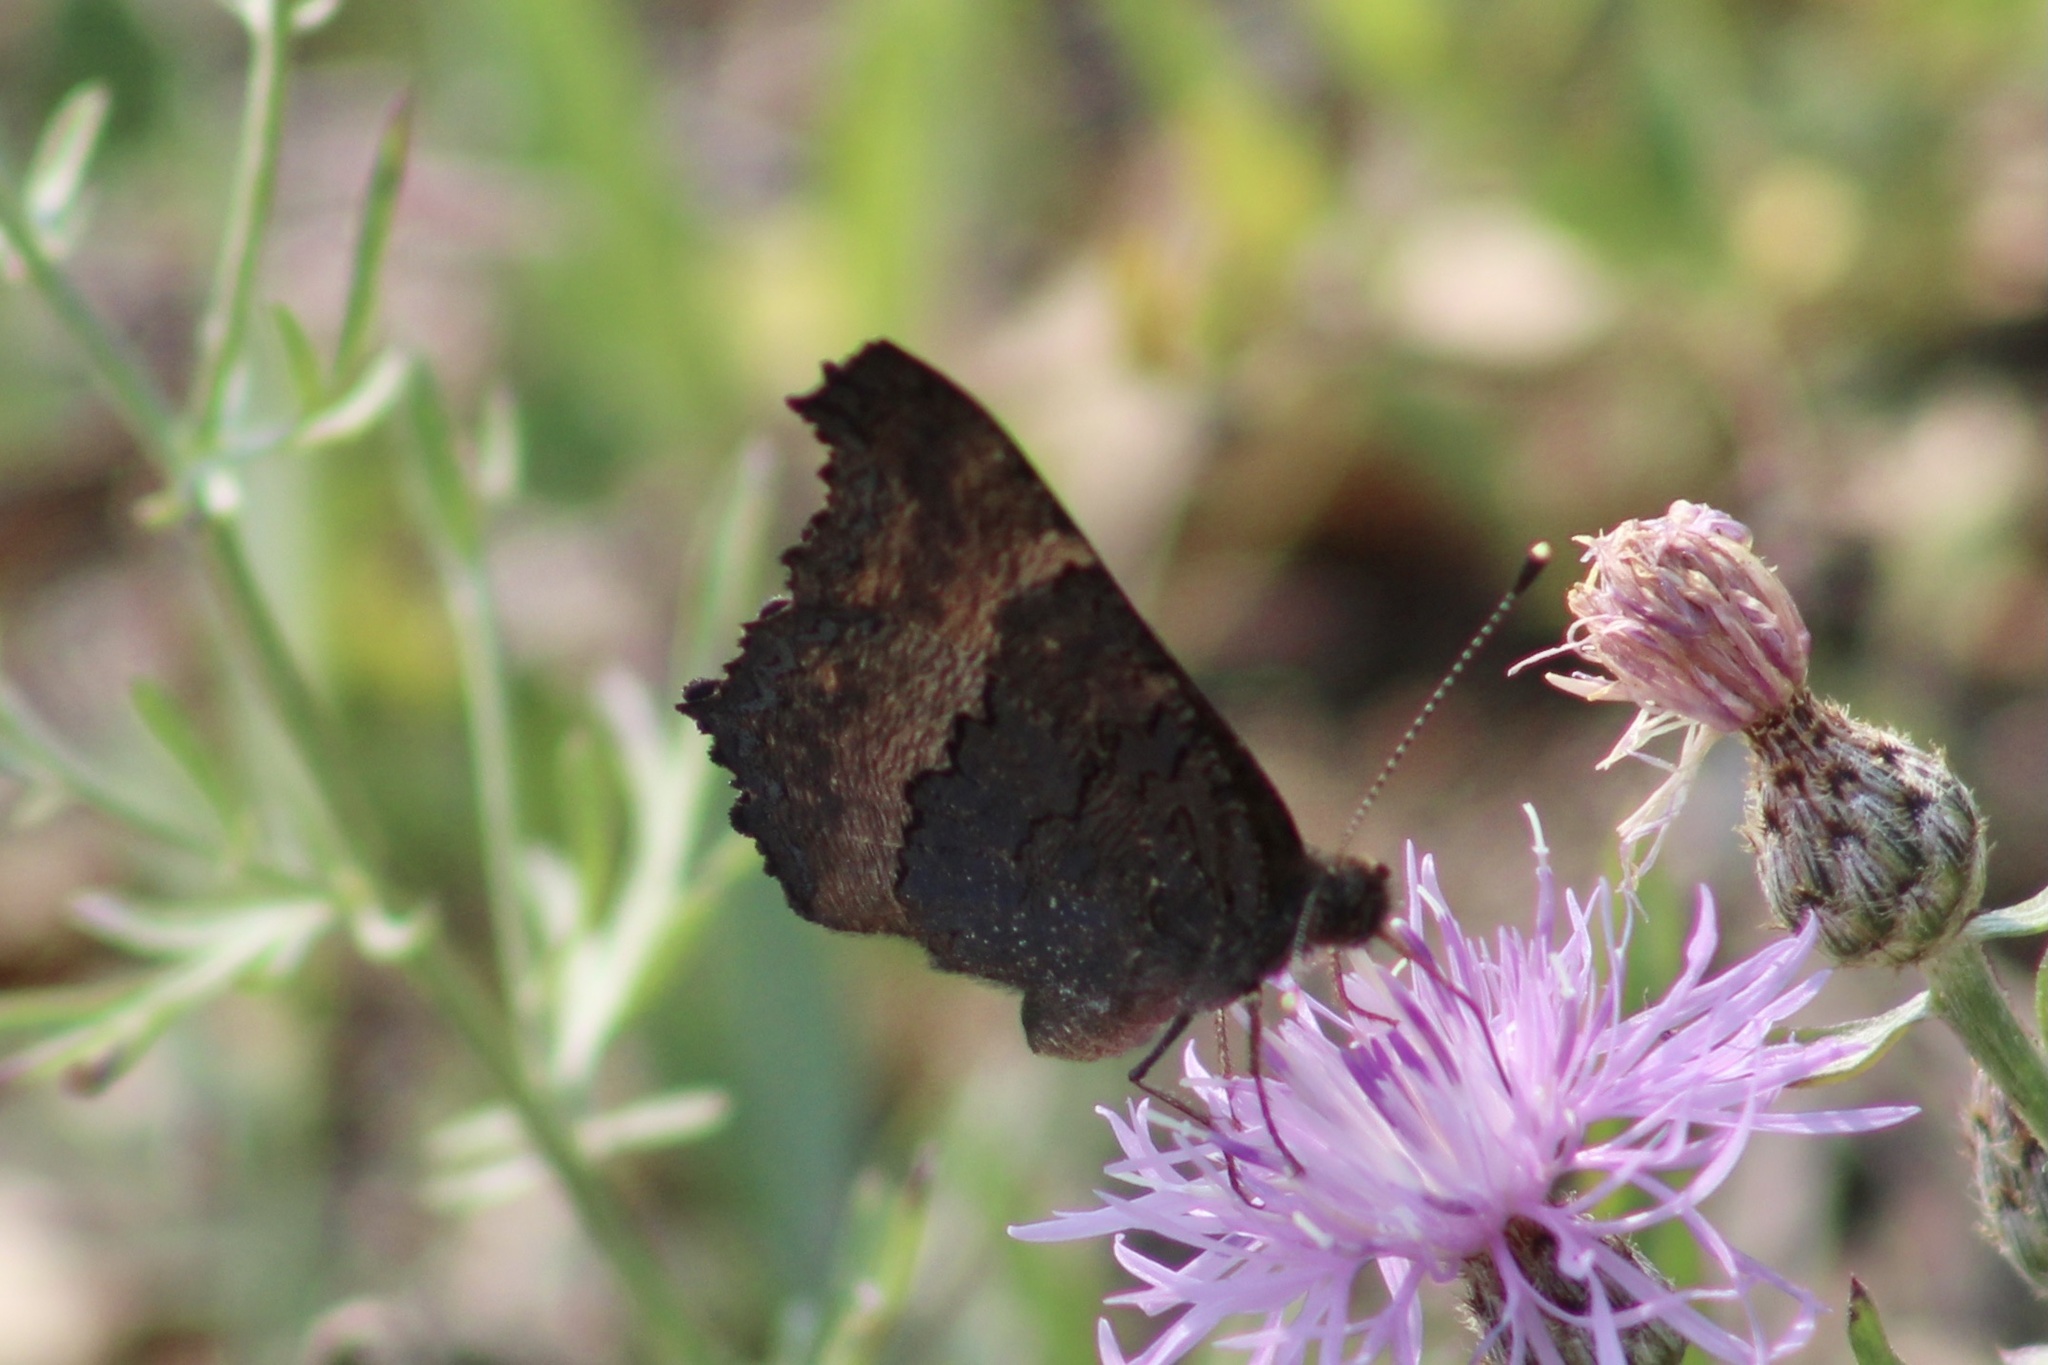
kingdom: Animalia
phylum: Arthropoda
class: Insecta
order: Lepidoptera
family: Nymphalidae
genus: Aglais
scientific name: Aglais milberti
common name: Milbert's tortoiseshell
